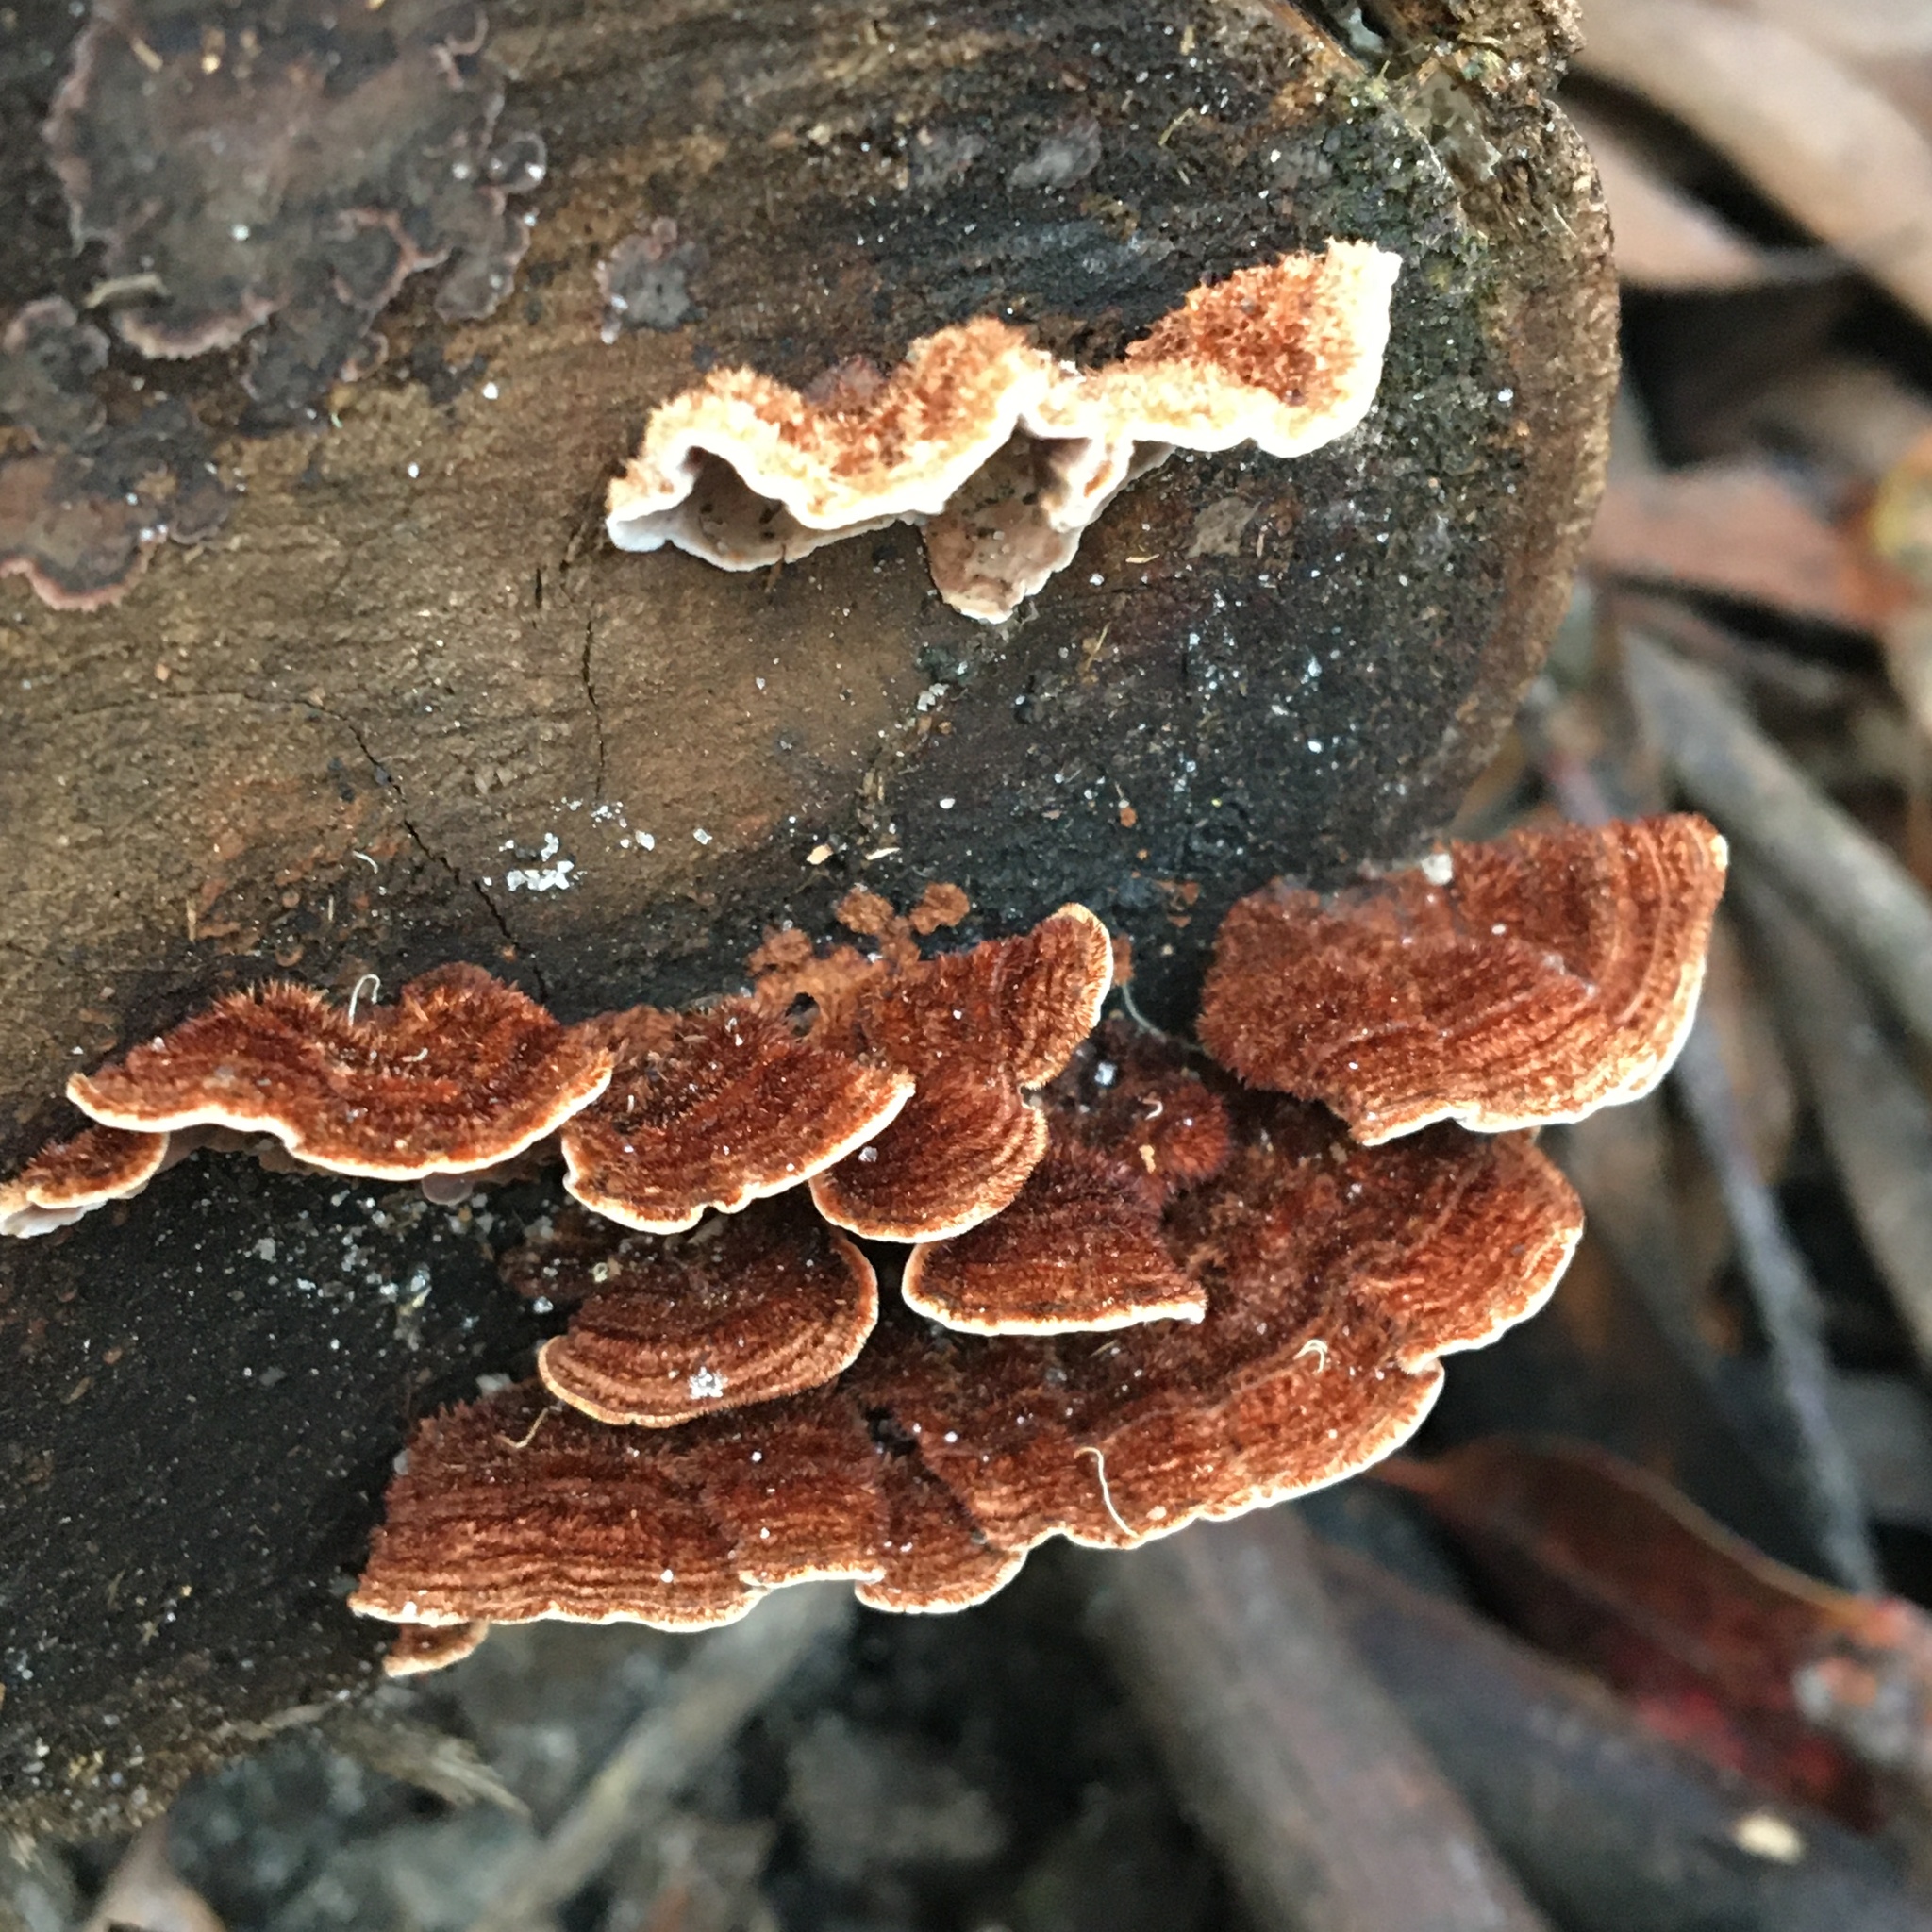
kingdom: Fungi
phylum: Basidiomycota
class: Agaricomycetes
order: Russulales
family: Stereaceae
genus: Xylobolus
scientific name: Xylobolus illudens
